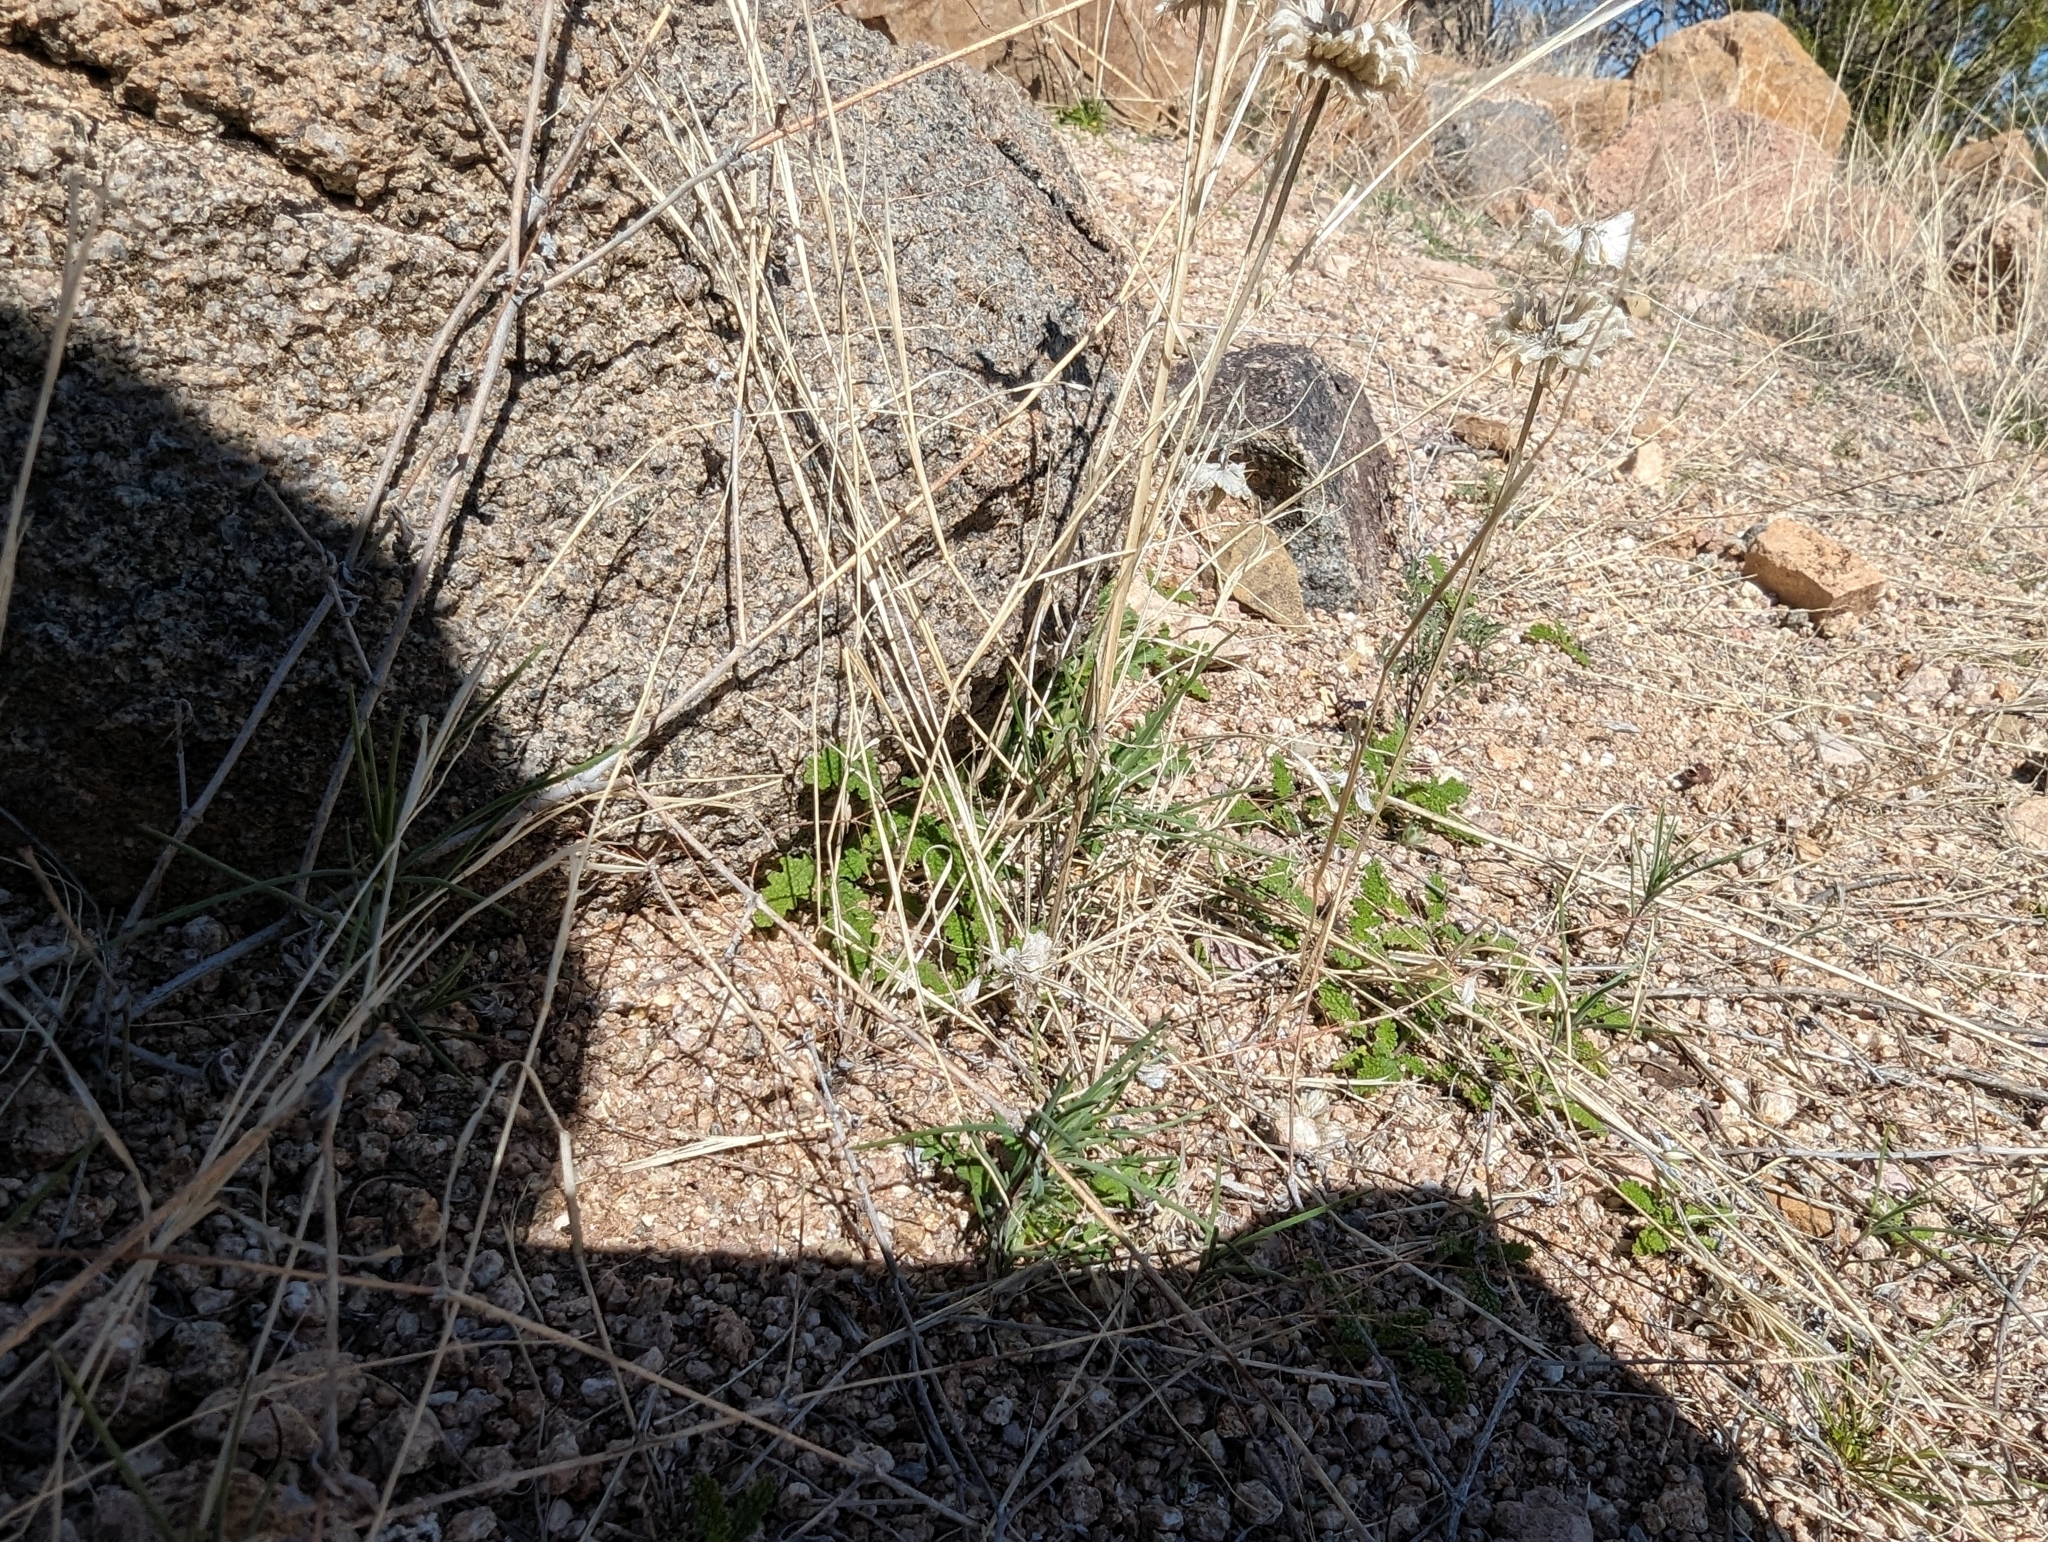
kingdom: Plantae
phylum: Tracheophyta
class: Magnoliopsida
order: Lamiales
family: Lamiaceae
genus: Salvia
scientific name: Salvia columbariae
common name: Chia
